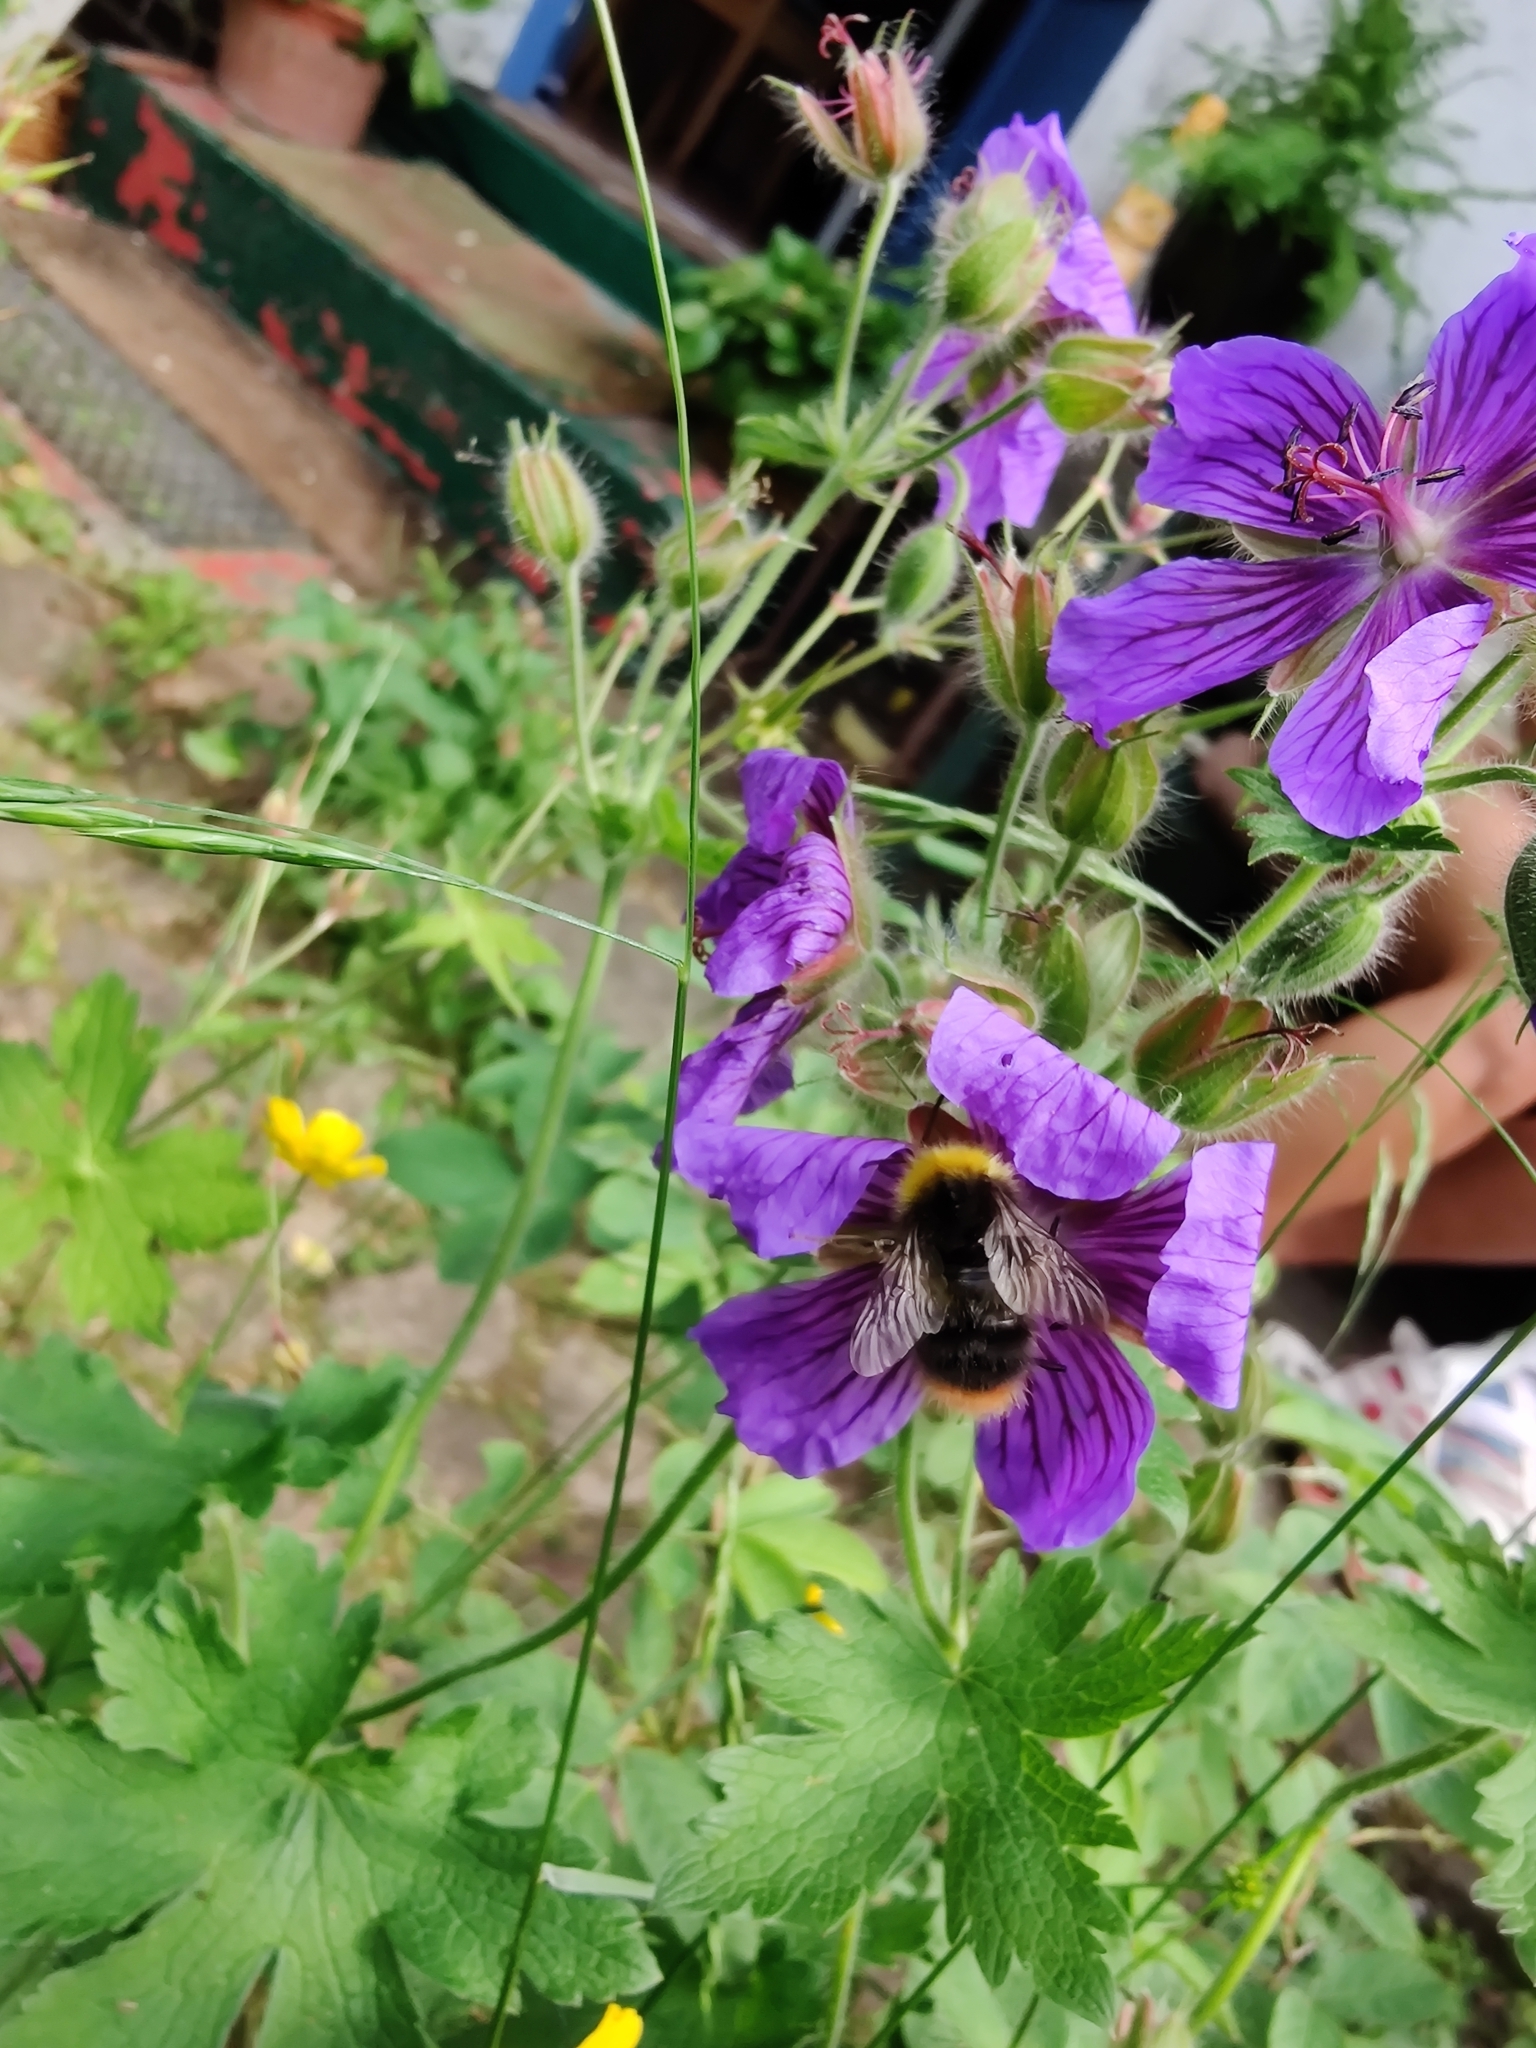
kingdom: Animalia
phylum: Arthropoda
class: Insecta
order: Hymenoptera
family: Apidae
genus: Bombus
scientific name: Bombus pratorum
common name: Early humble-bee
